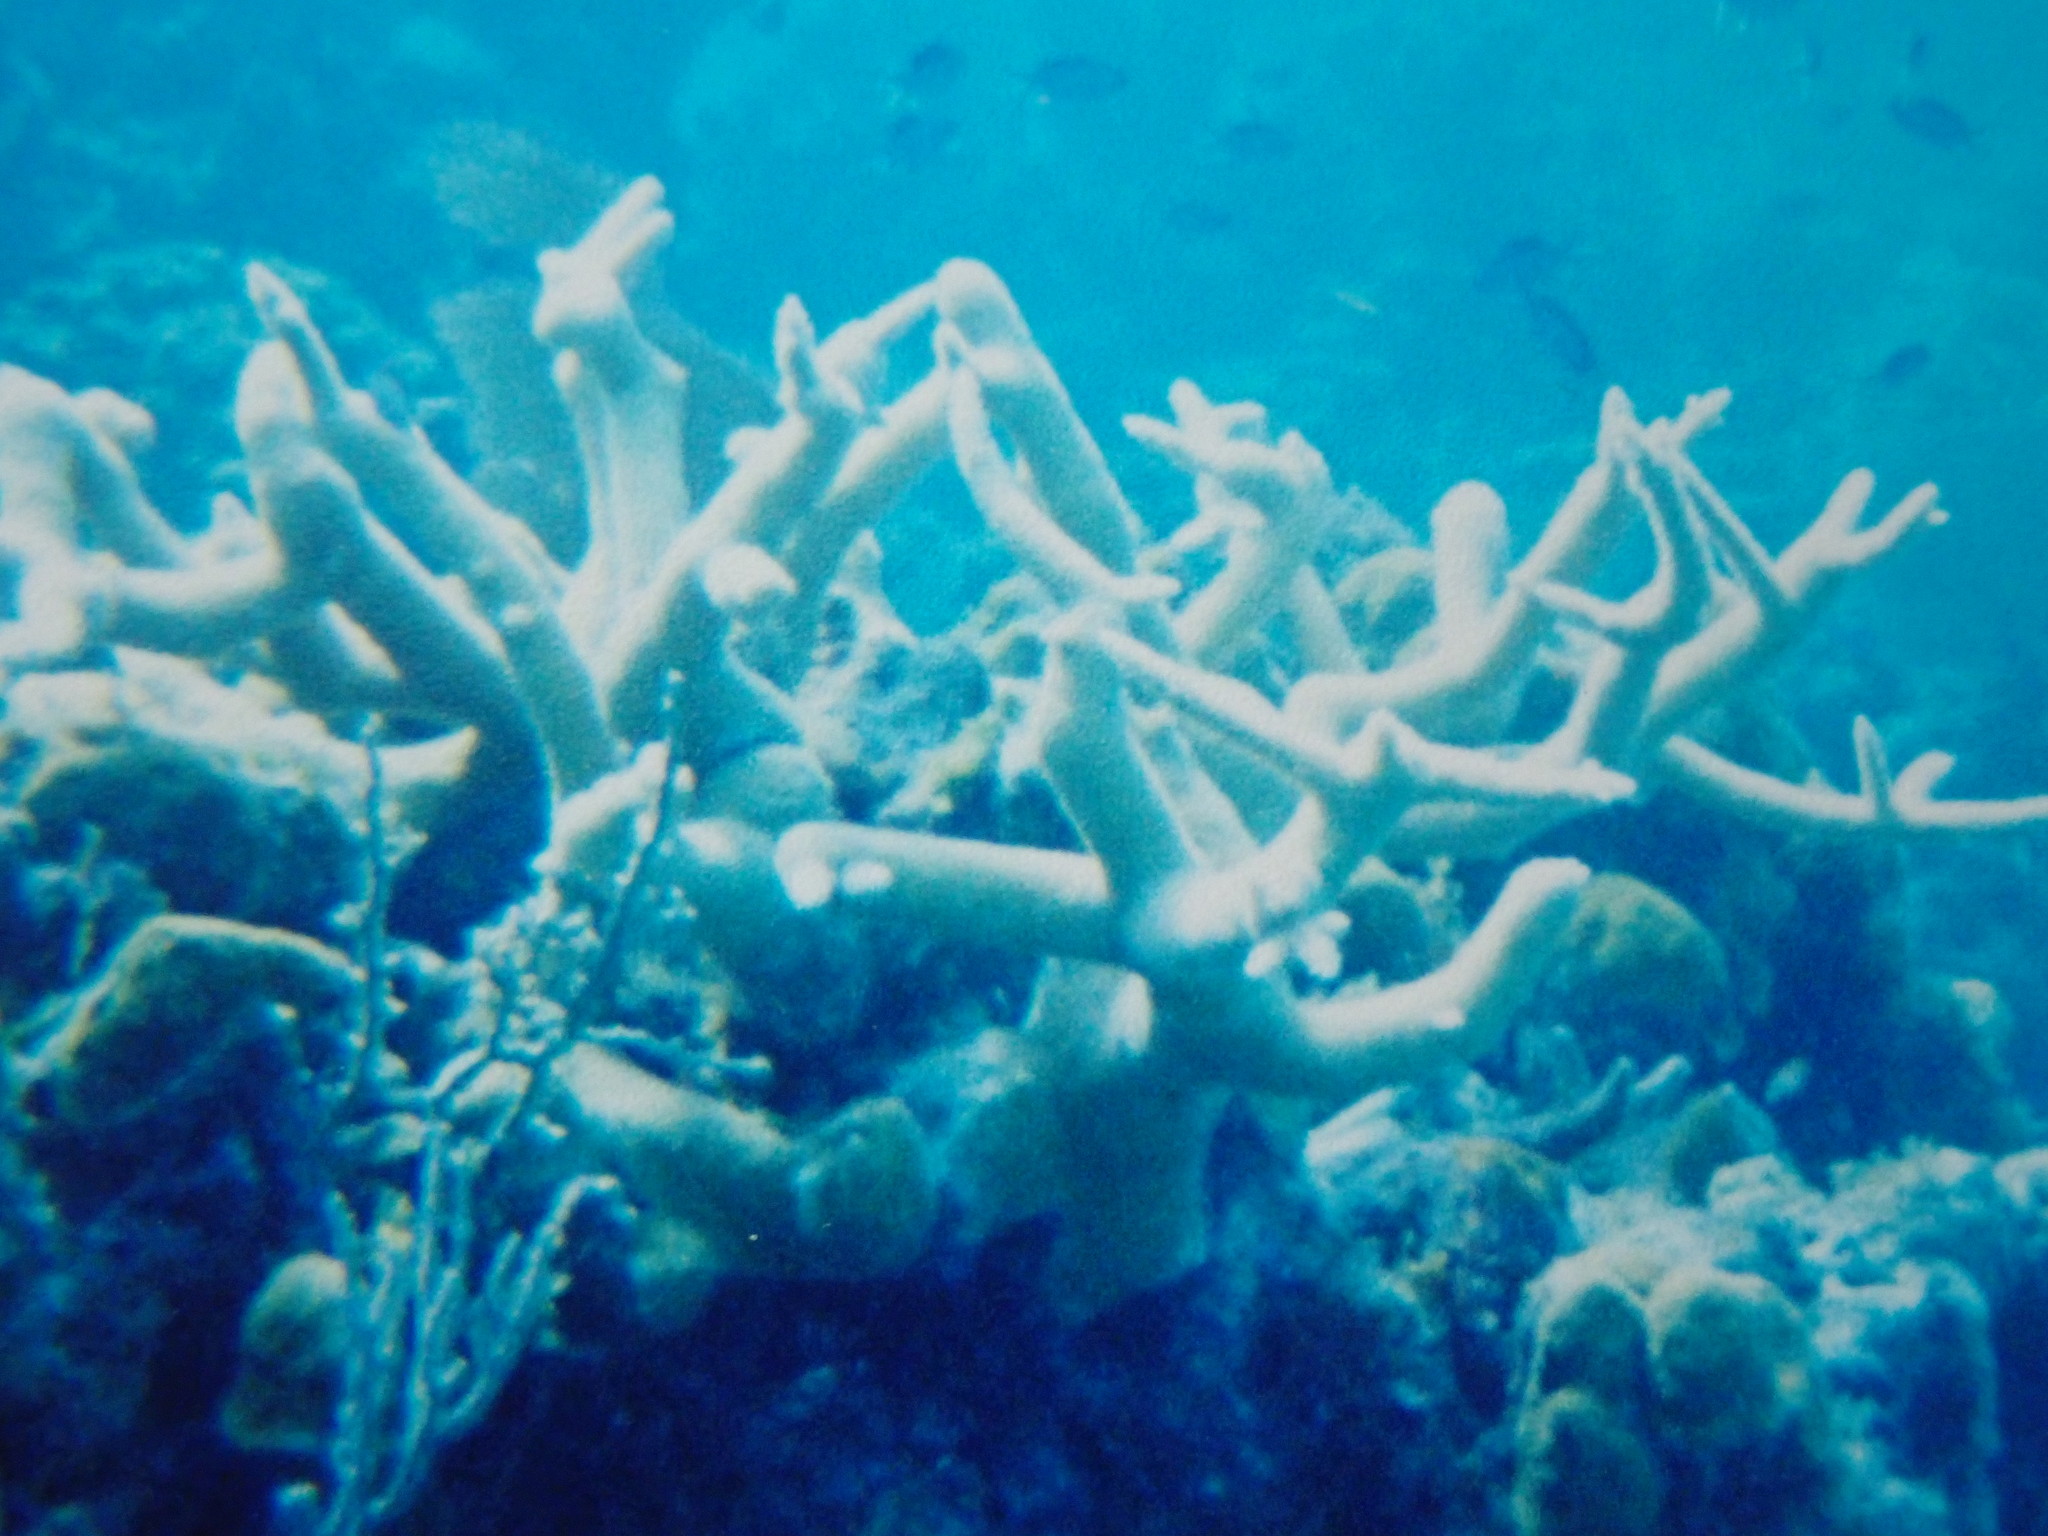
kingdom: Animalia
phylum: Cnidaria
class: Anthozoa
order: Scleractinia
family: Acroporidae
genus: Acropora
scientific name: Acropora cervicornis
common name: Staghorn coral
